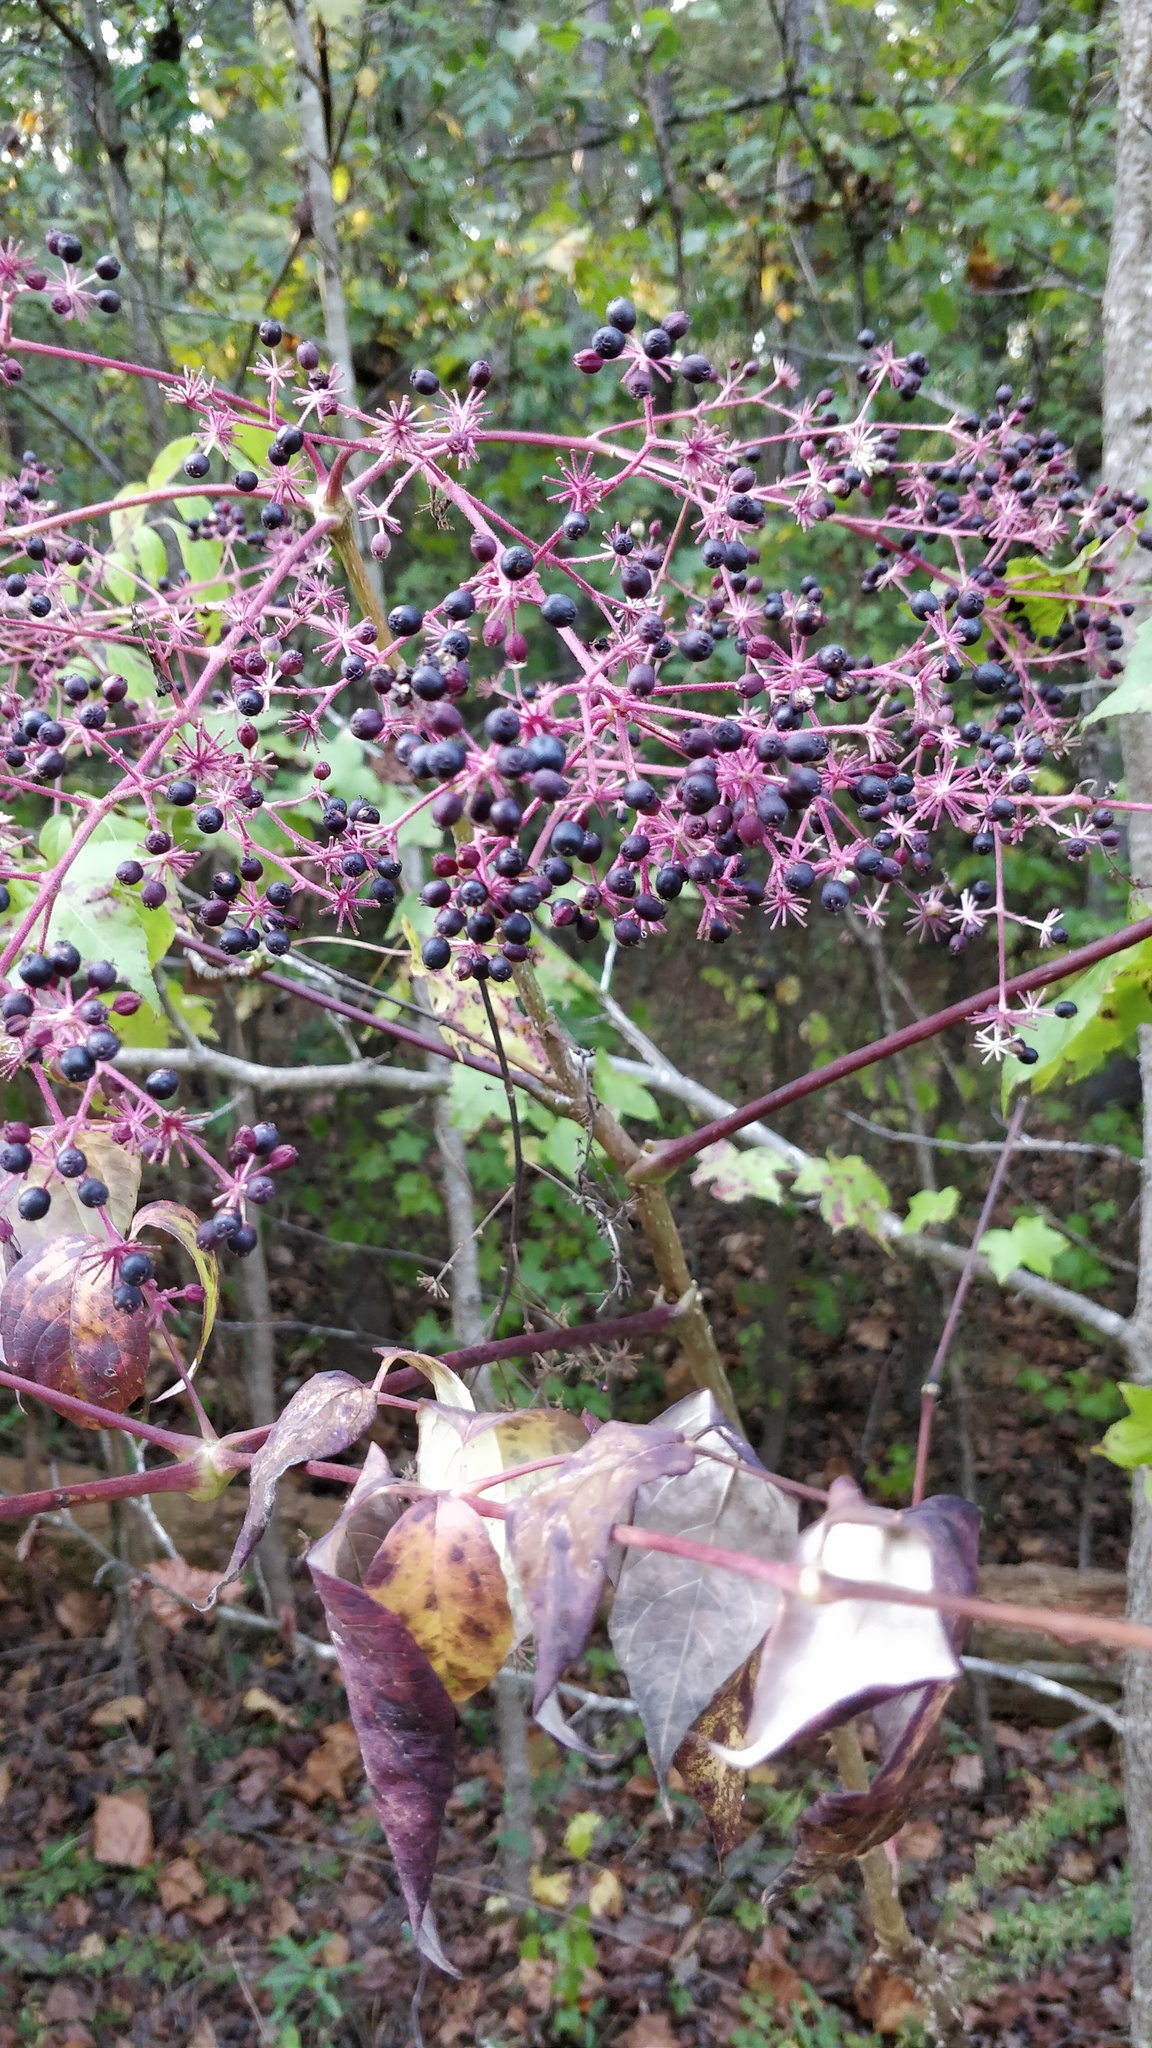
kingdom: Plantae
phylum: Tracheophyta
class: Magnoliopsida
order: Apiales
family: Araliaceae
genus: Aralia
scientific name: Aralia spinosa
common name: Hercules'-club
